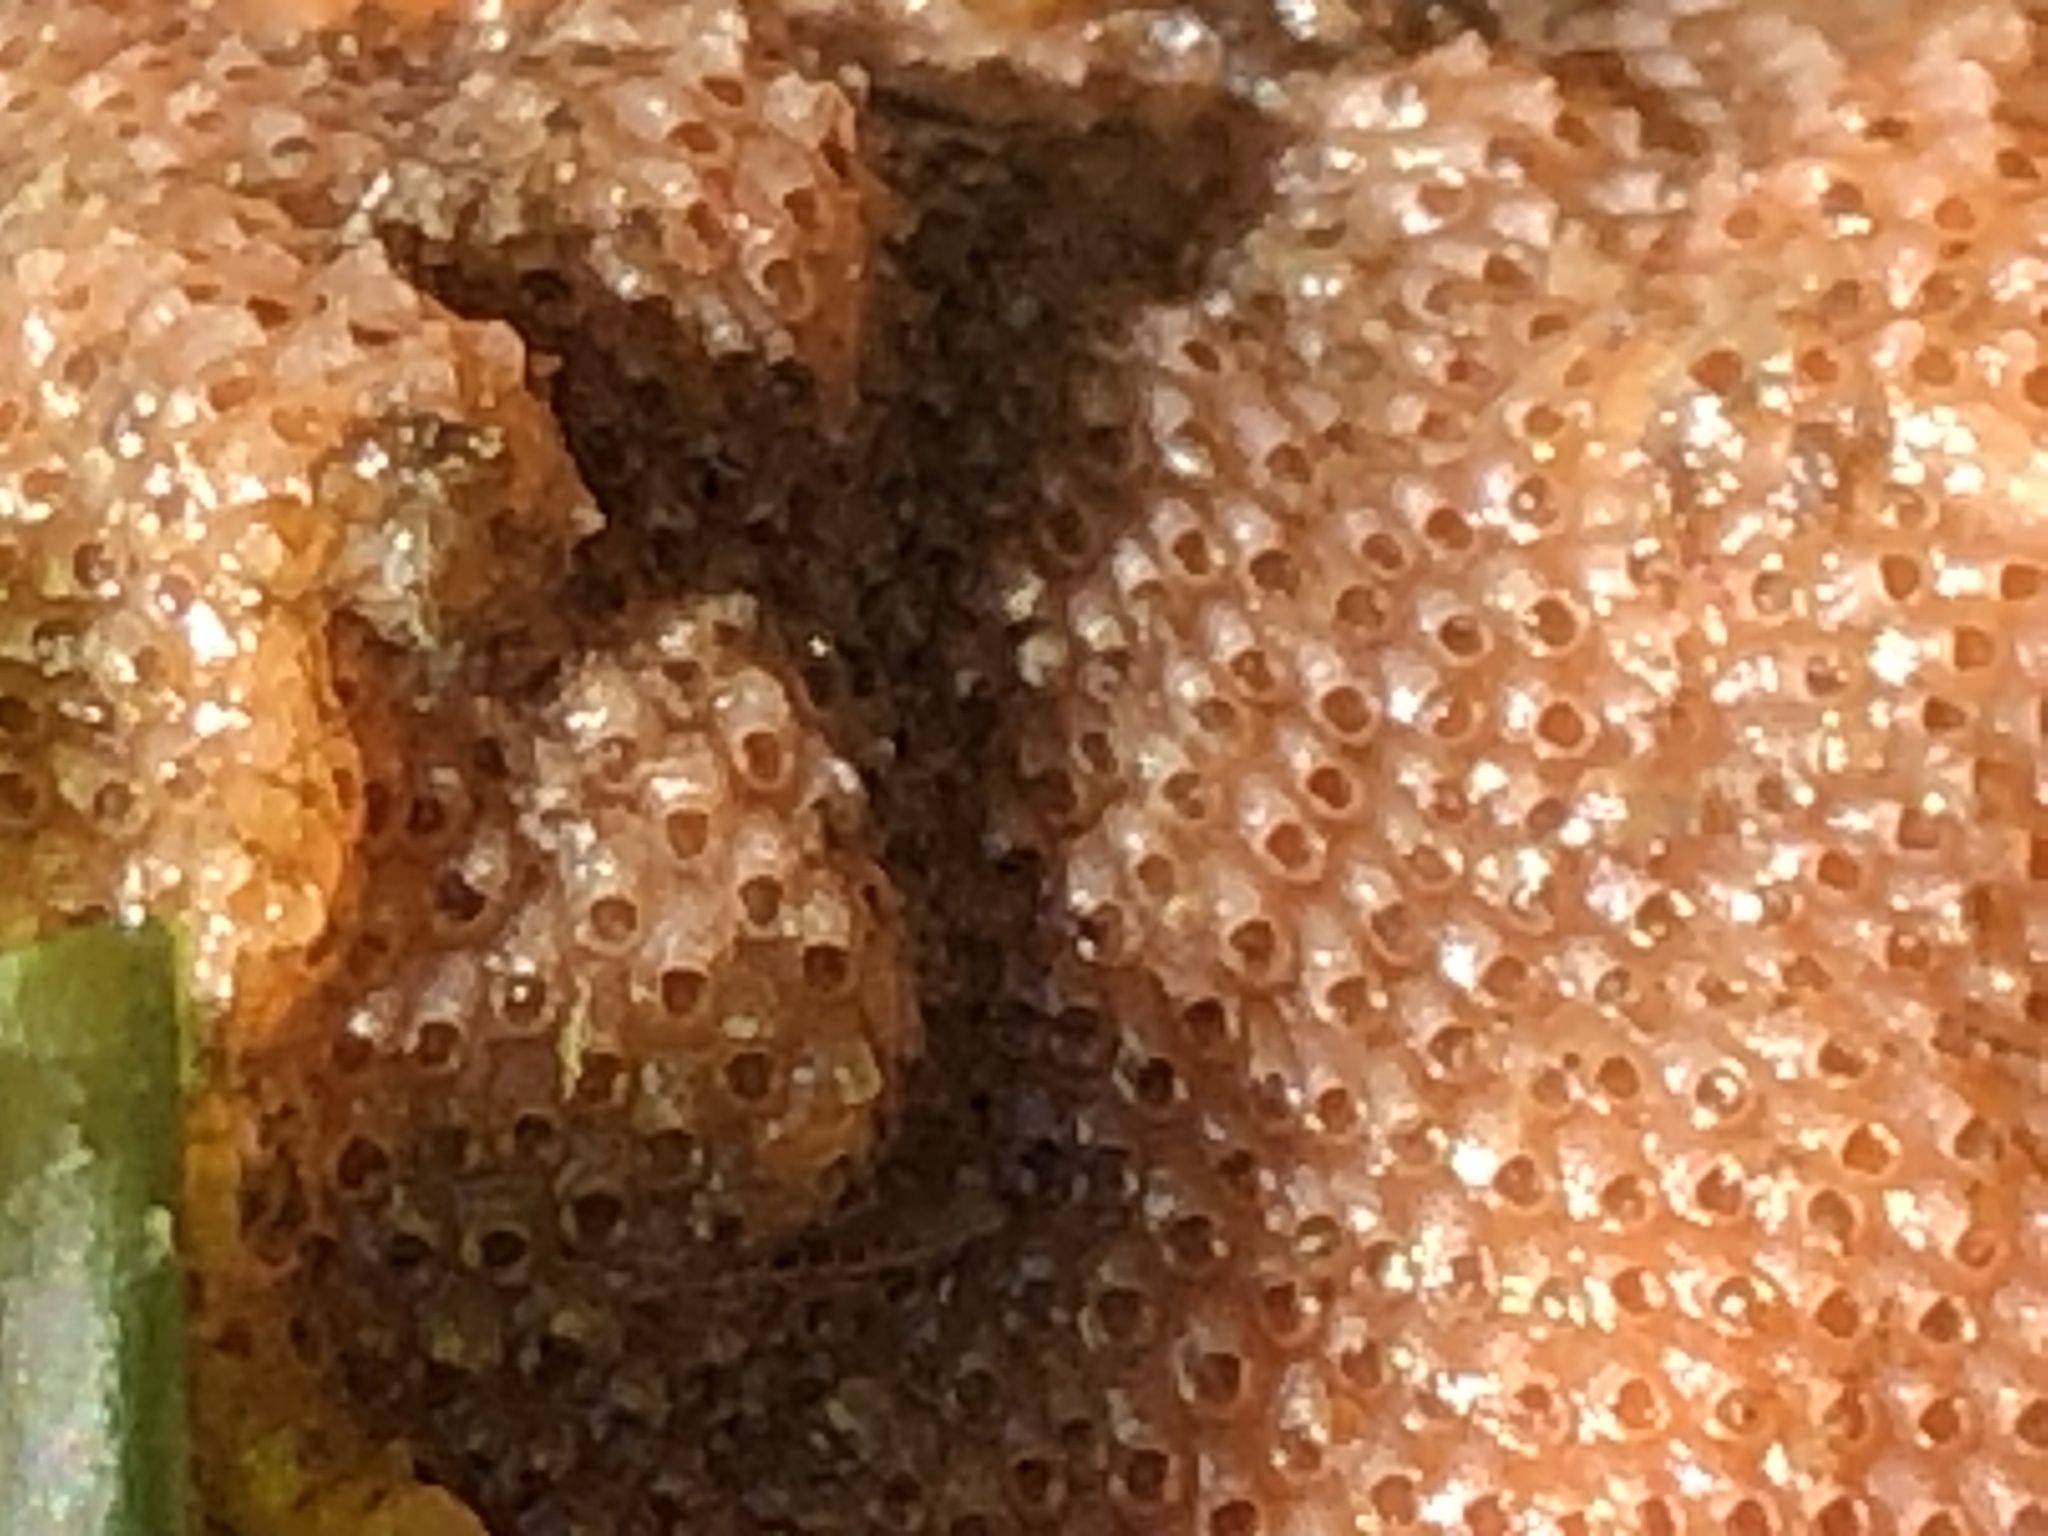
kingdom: Animalia
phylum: Bryozoa
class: Gymnolaemata
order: Cheilostomatida
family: Eurystomellidae
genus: Integripelta
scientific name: Integripelta bilabiata
